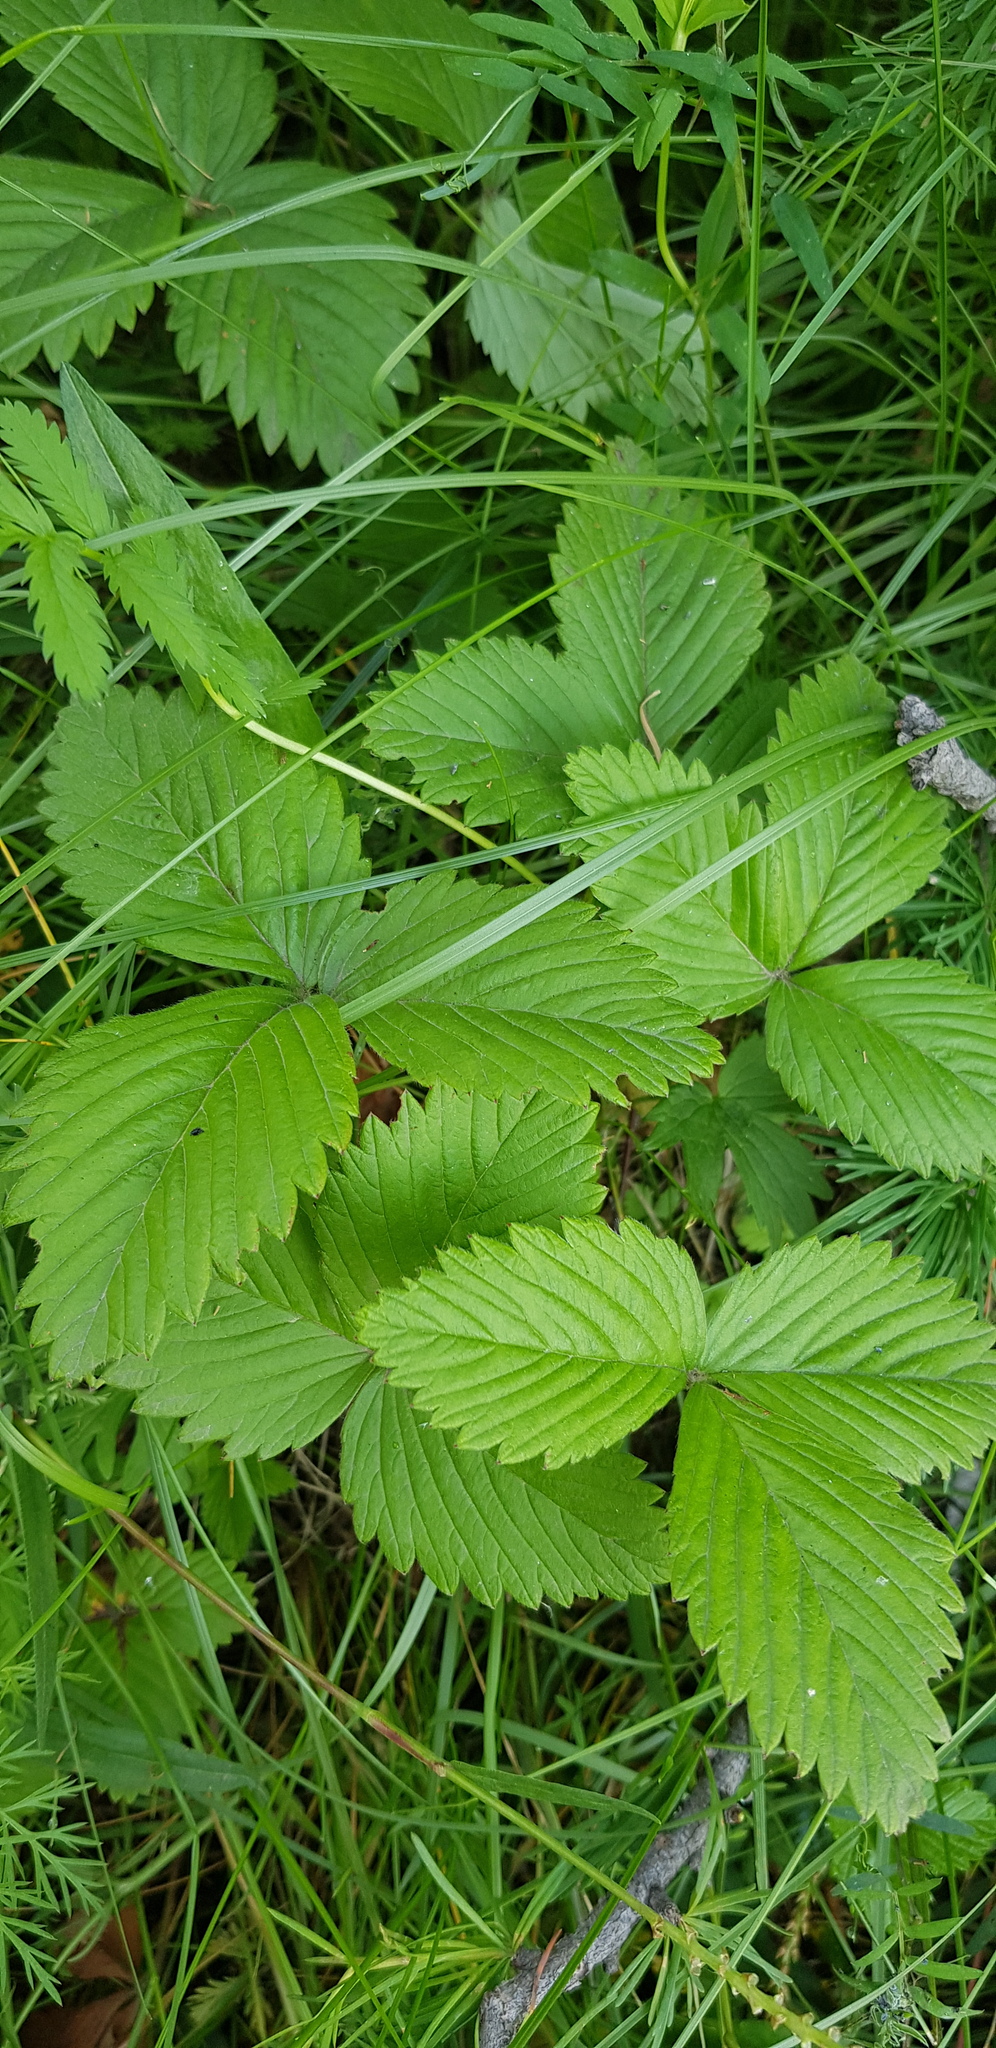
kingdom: Plantae
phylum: Tracheophyta
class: Magnoliopsida
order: Rosales
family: Rosaceae
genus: Fragaria
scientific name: Fragaria orientalis
